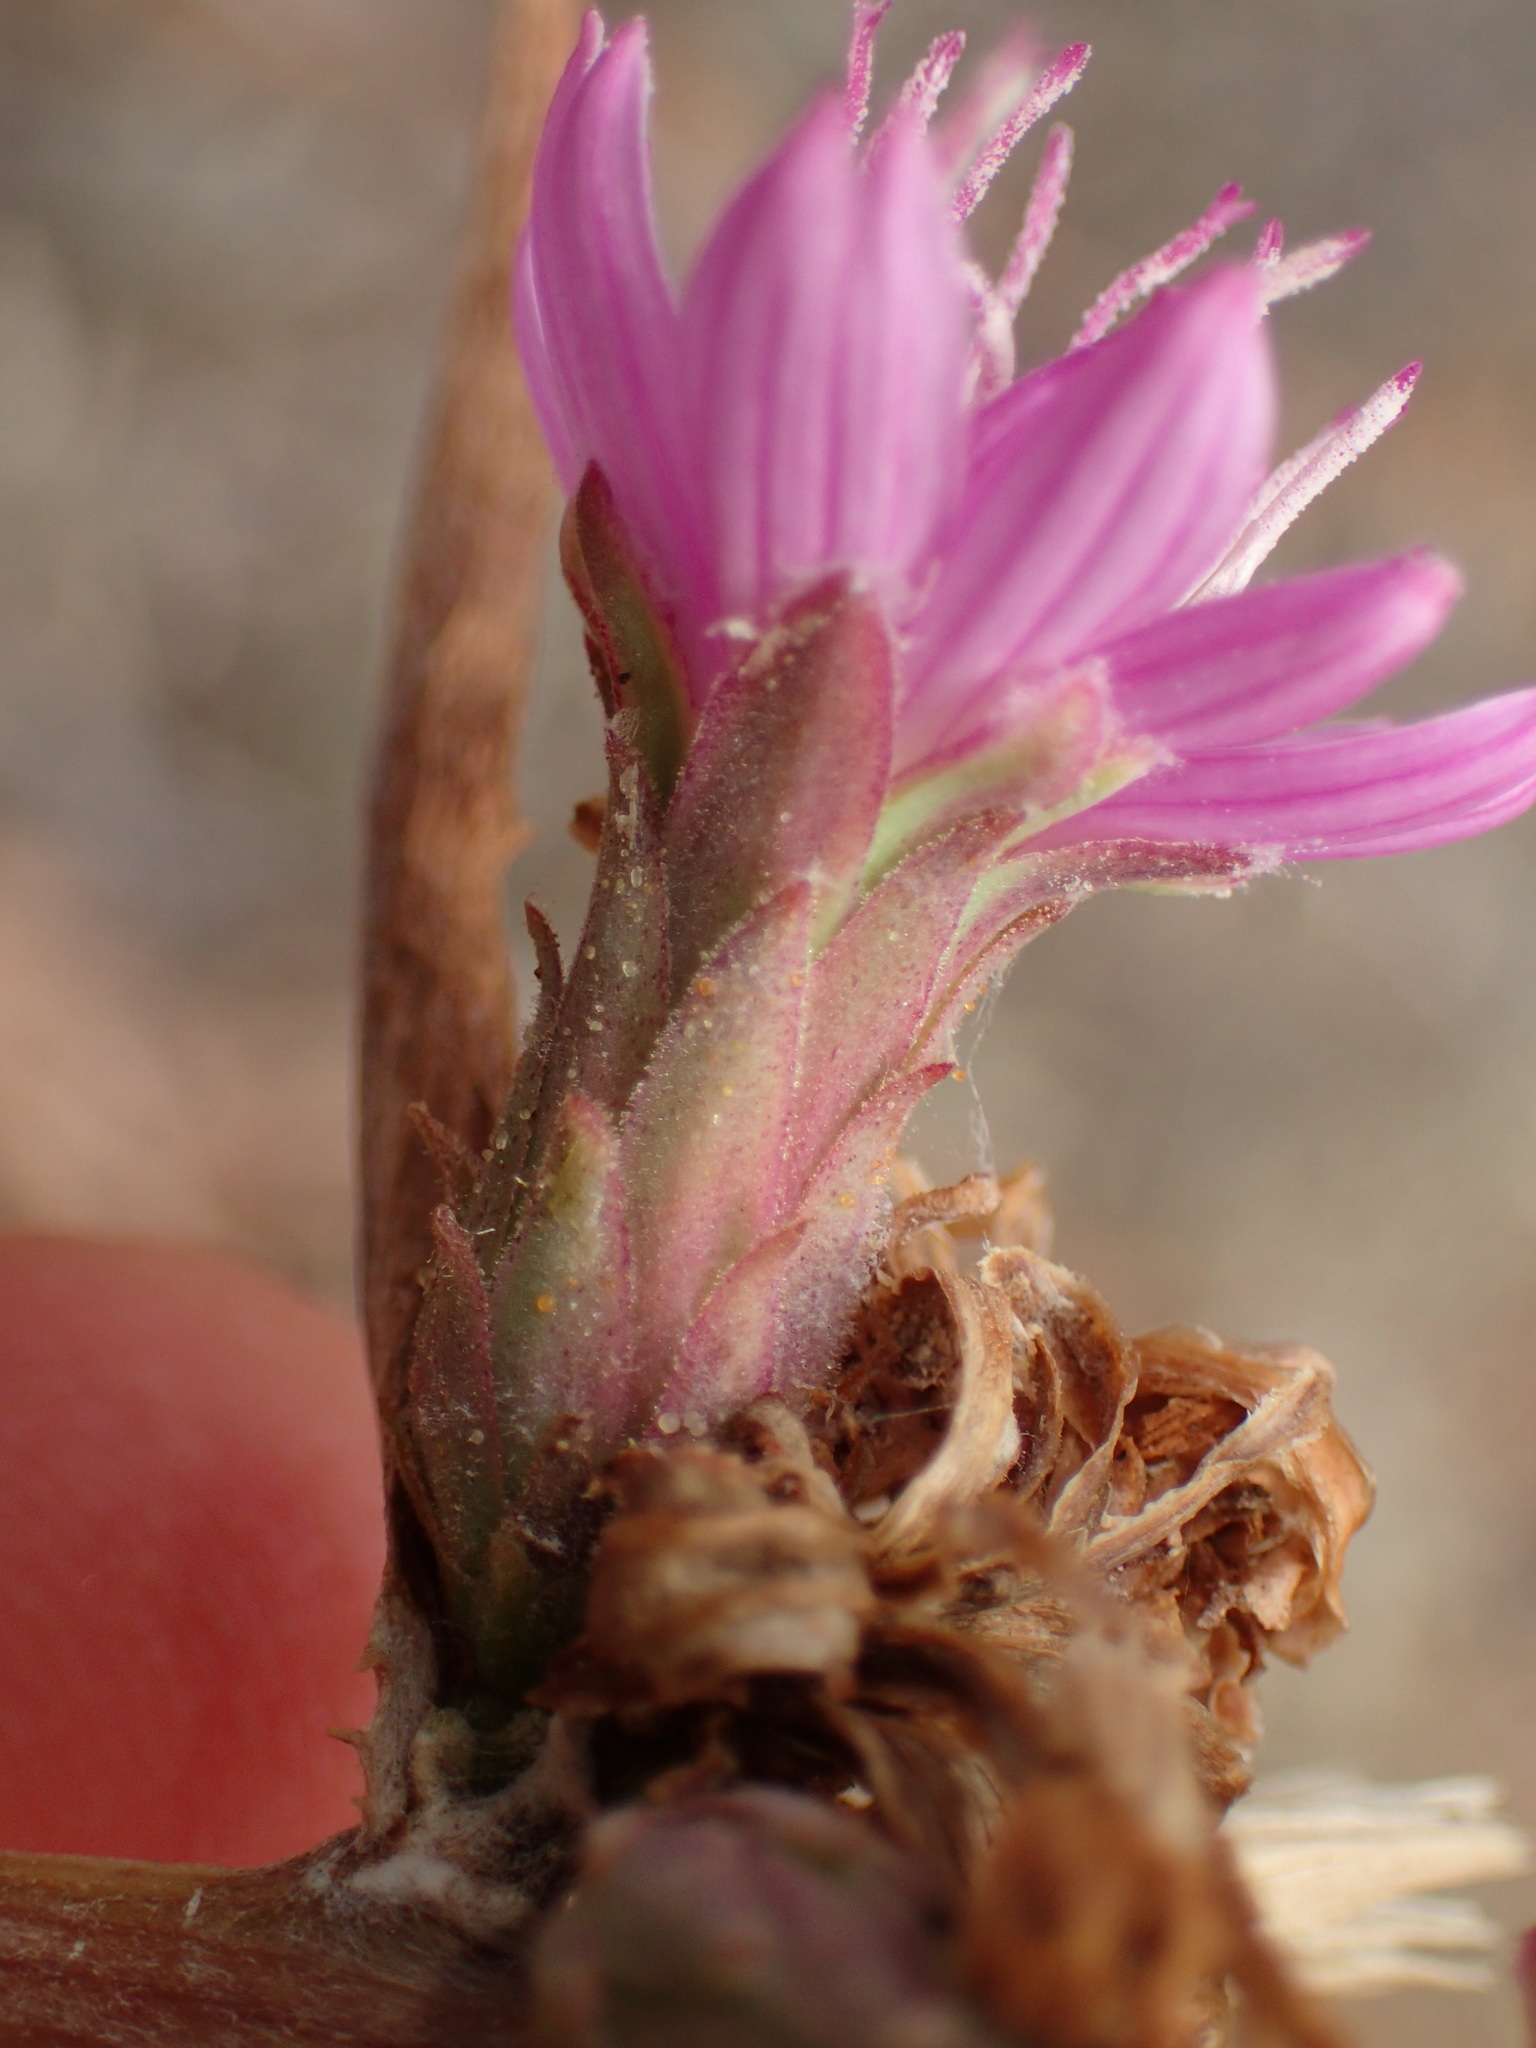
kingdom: Plantae
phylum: Tracheophyta
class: Magnoliopsida
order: Asterales
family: Asteraceae
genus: Stephanomeria
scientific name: Stephanomeria cichoriacea
